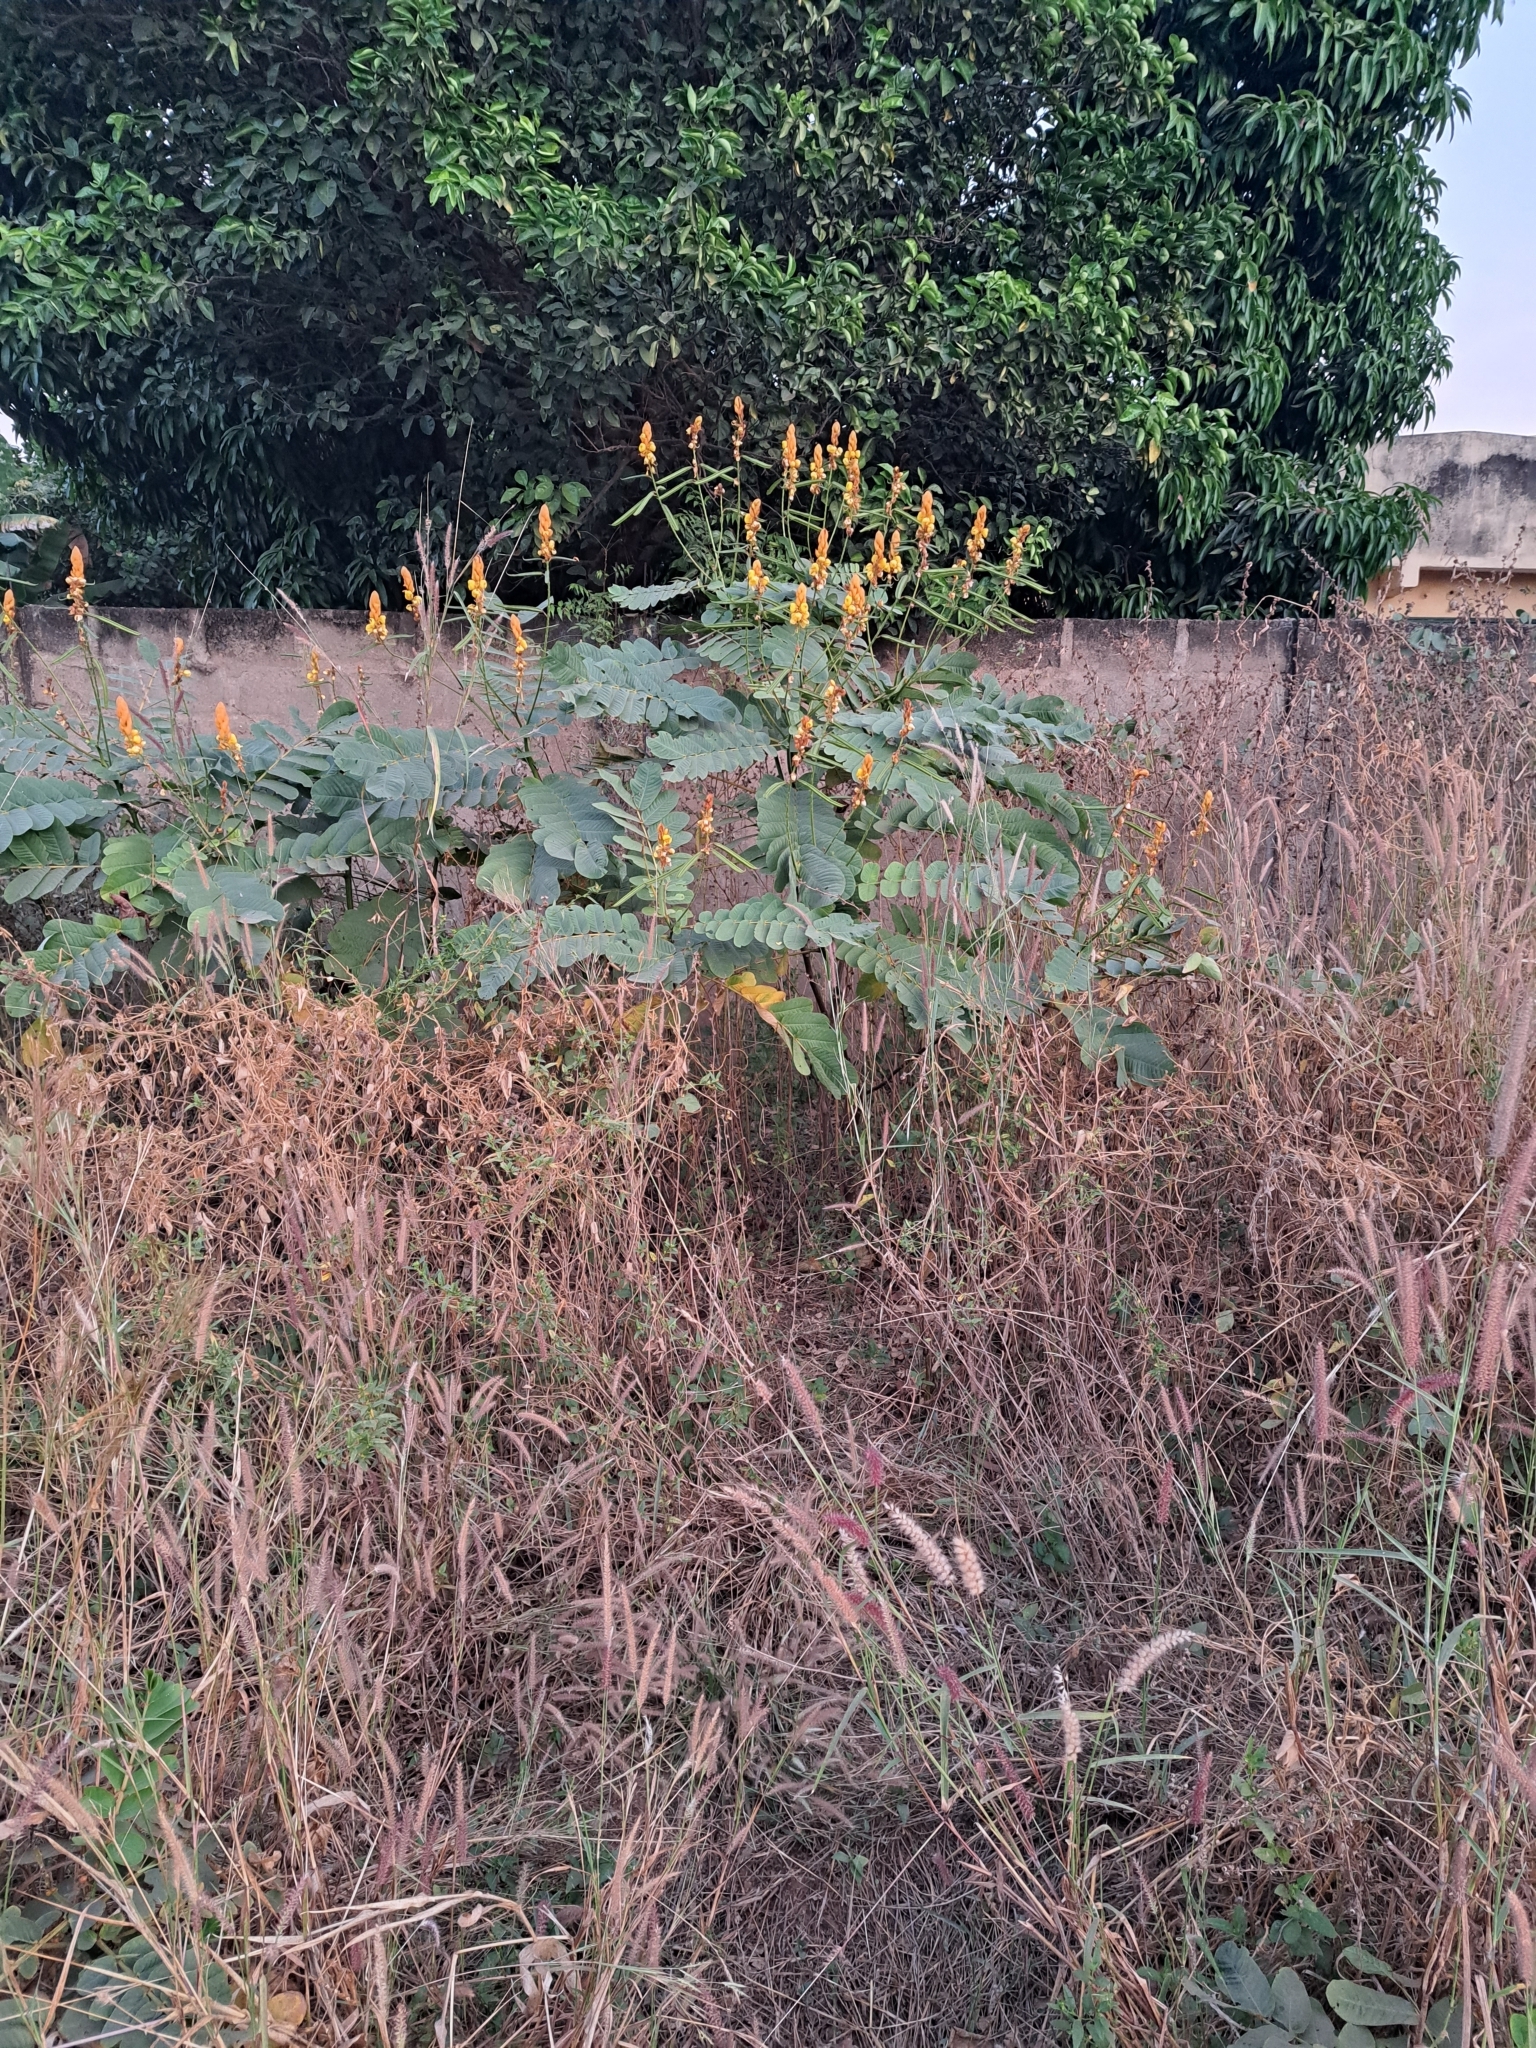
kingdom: Plantae
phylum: Tracheophyta
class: Magnoliopsida
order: Fabales
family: Fabaceae
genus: Senna
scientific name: Senna alata
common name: Emperor's candlesticks
